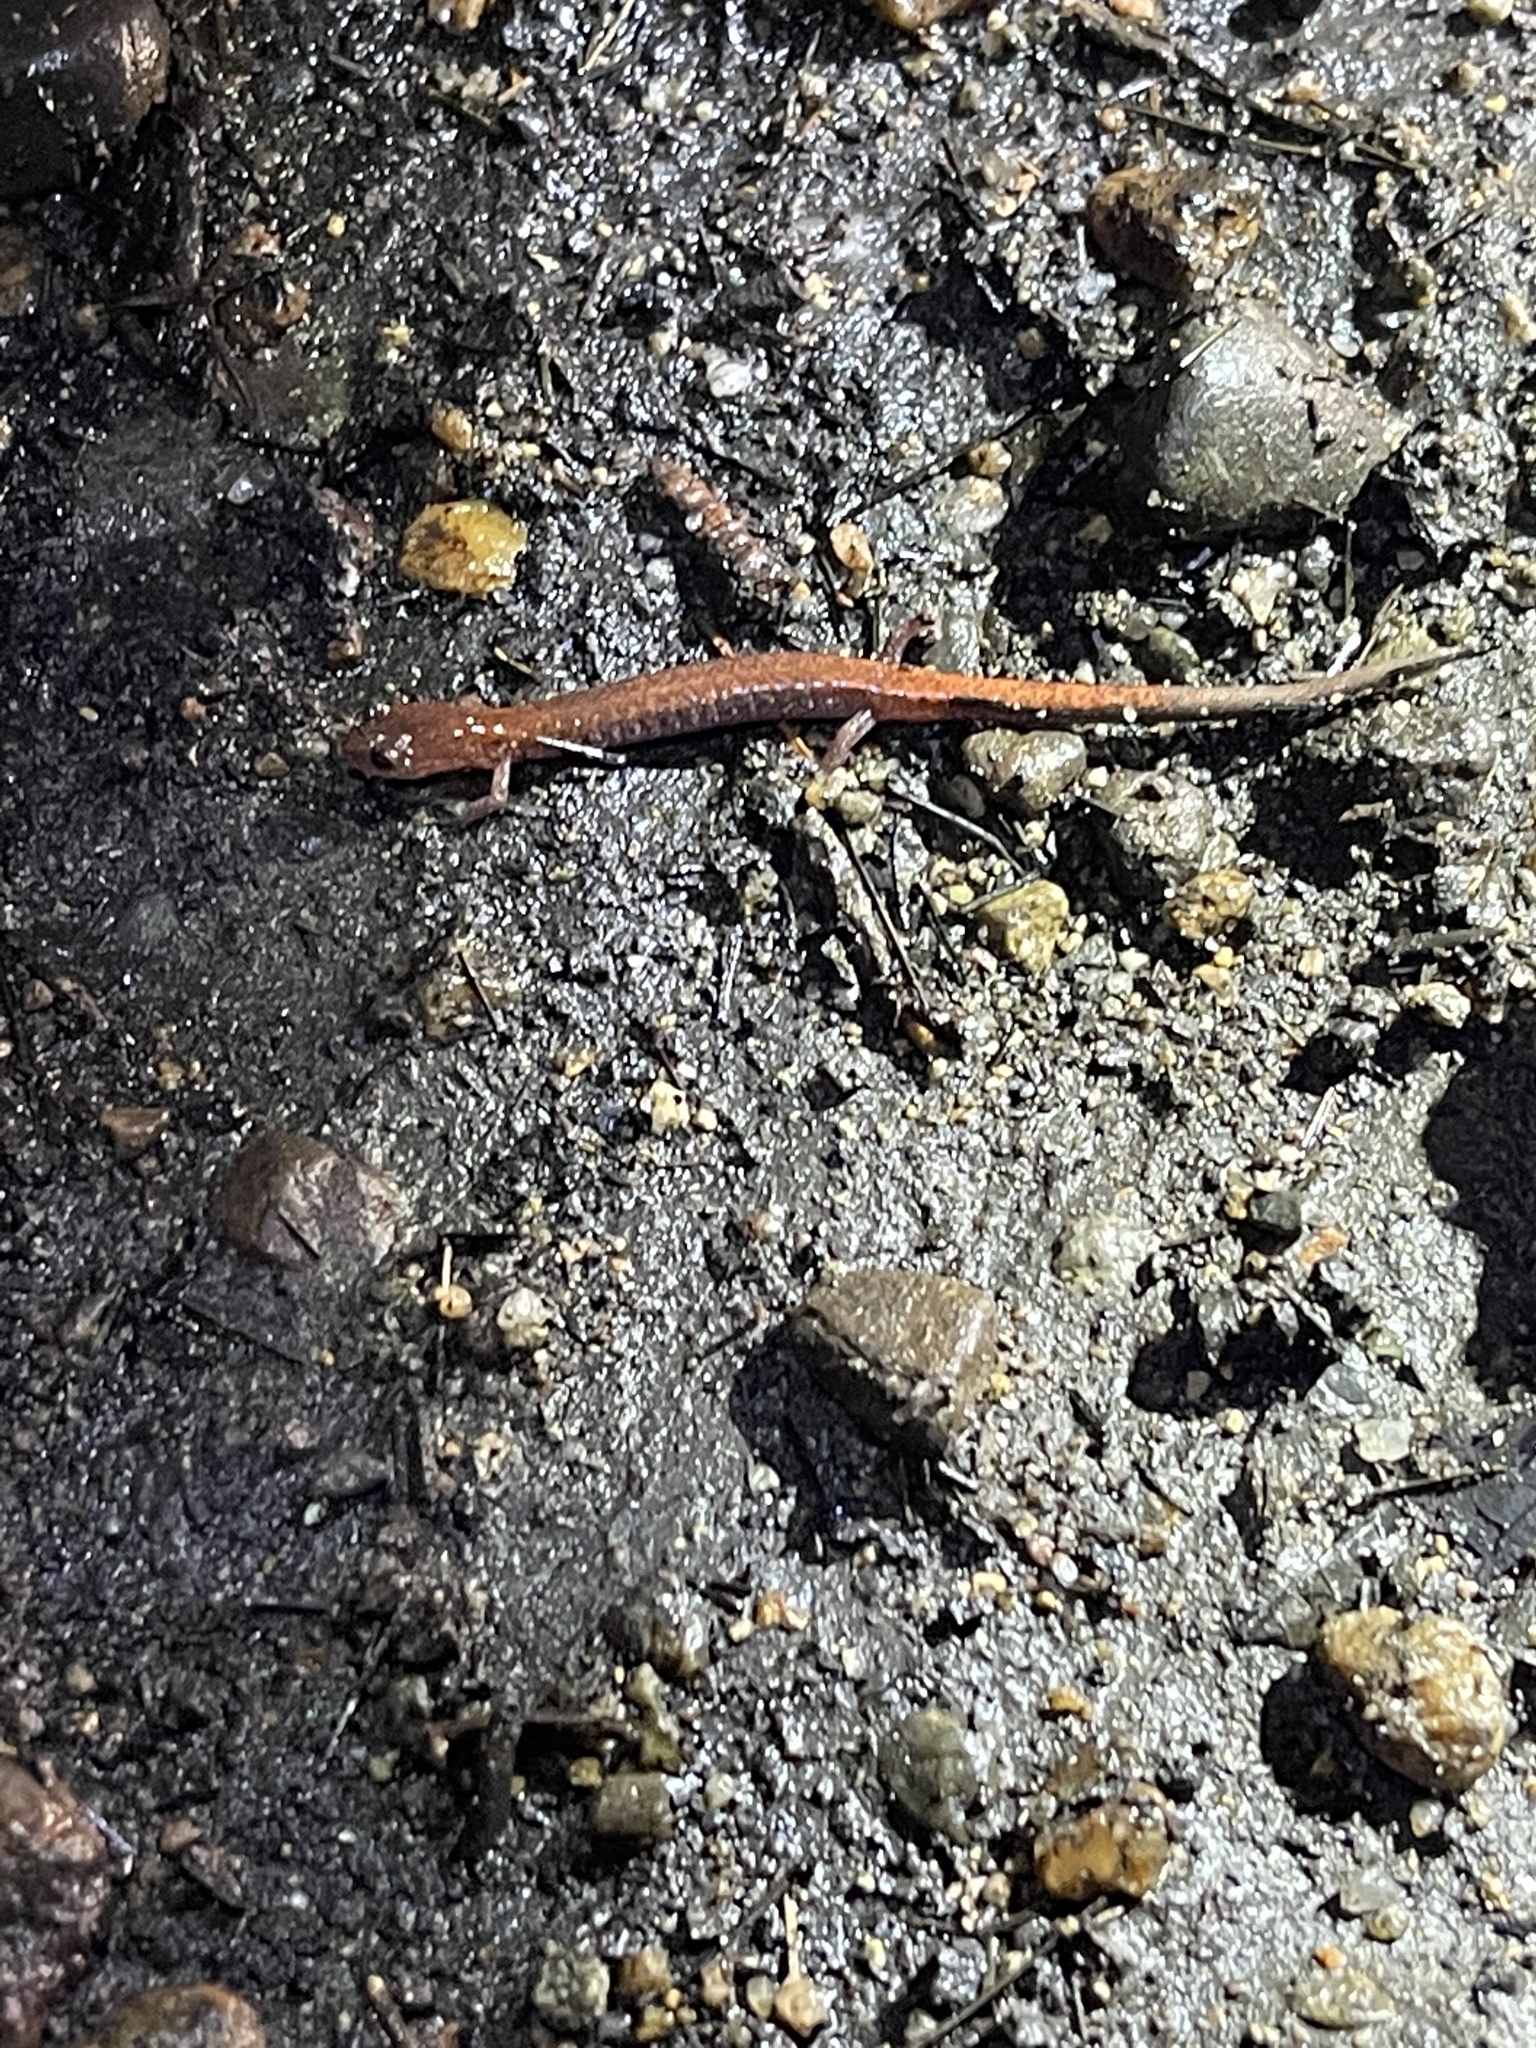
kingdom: Animalia
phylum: Chordata
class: Amphibia
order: Caudata
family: Plethodontidae
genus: Plethodon
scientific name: Plethodon cinereus
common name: Redback salamander
